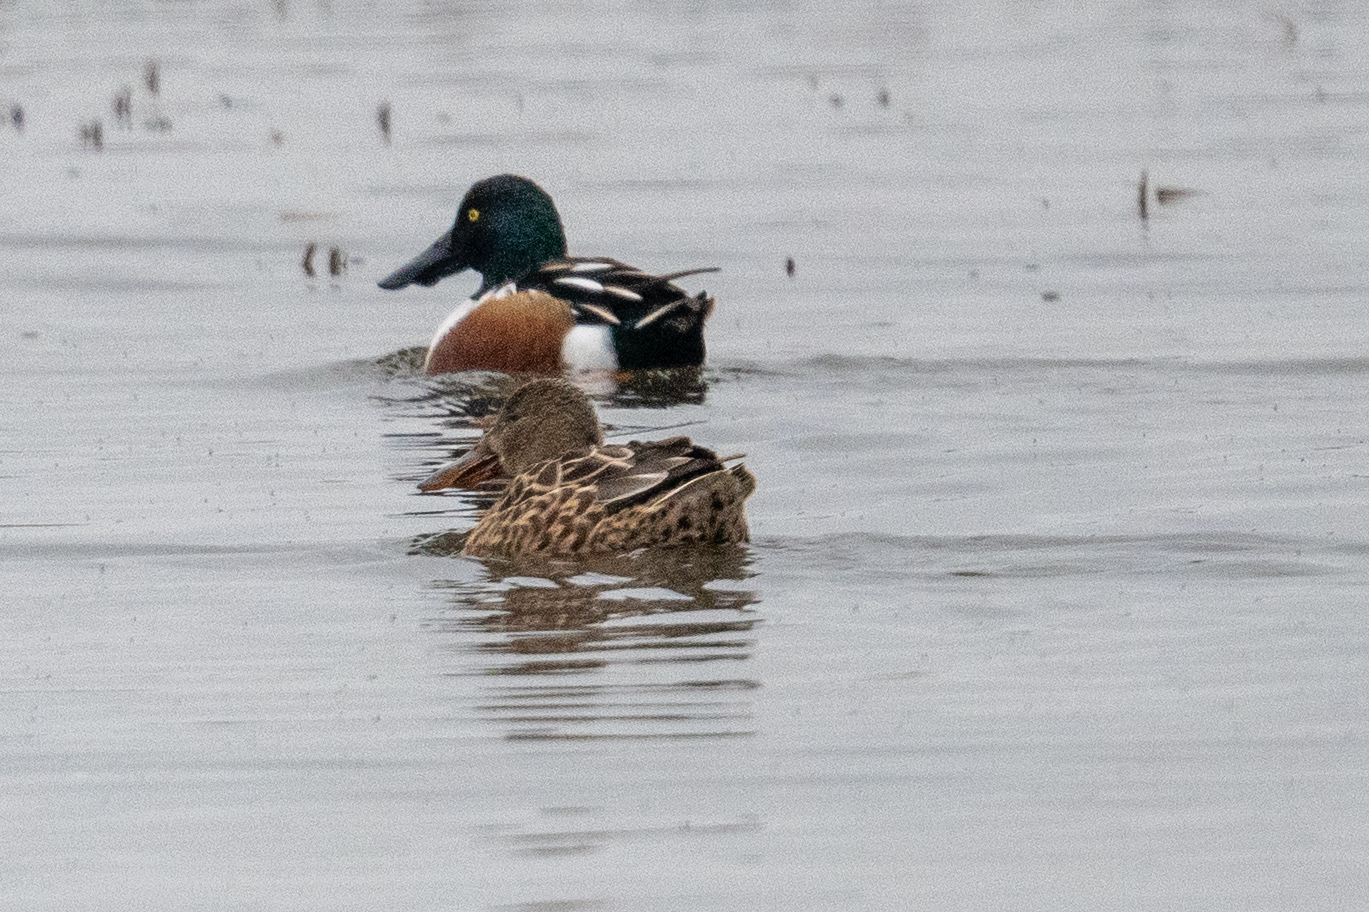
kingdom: Animalia
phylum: Chordata
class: Aves
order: Anseriformes
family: Anatidae
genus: Spatula
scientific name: Spatula clypeata
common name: Northern shoveler
